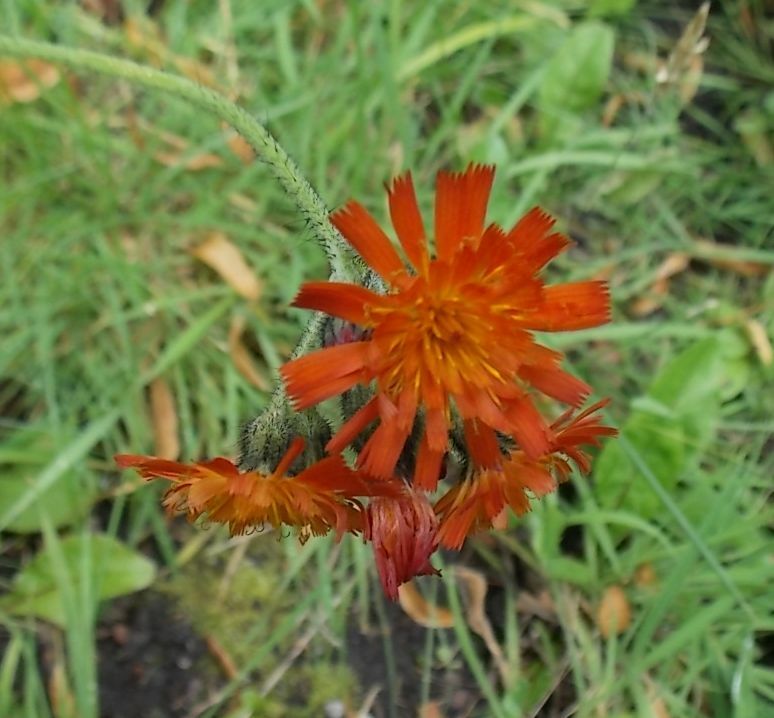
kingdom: Plantae
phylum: Tracheophyta
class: Magnoliopsida
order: Asterales
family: Asteraceae
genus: Pilosella
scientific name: Pilosella aurantiaca
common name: Fox-and-cubs
